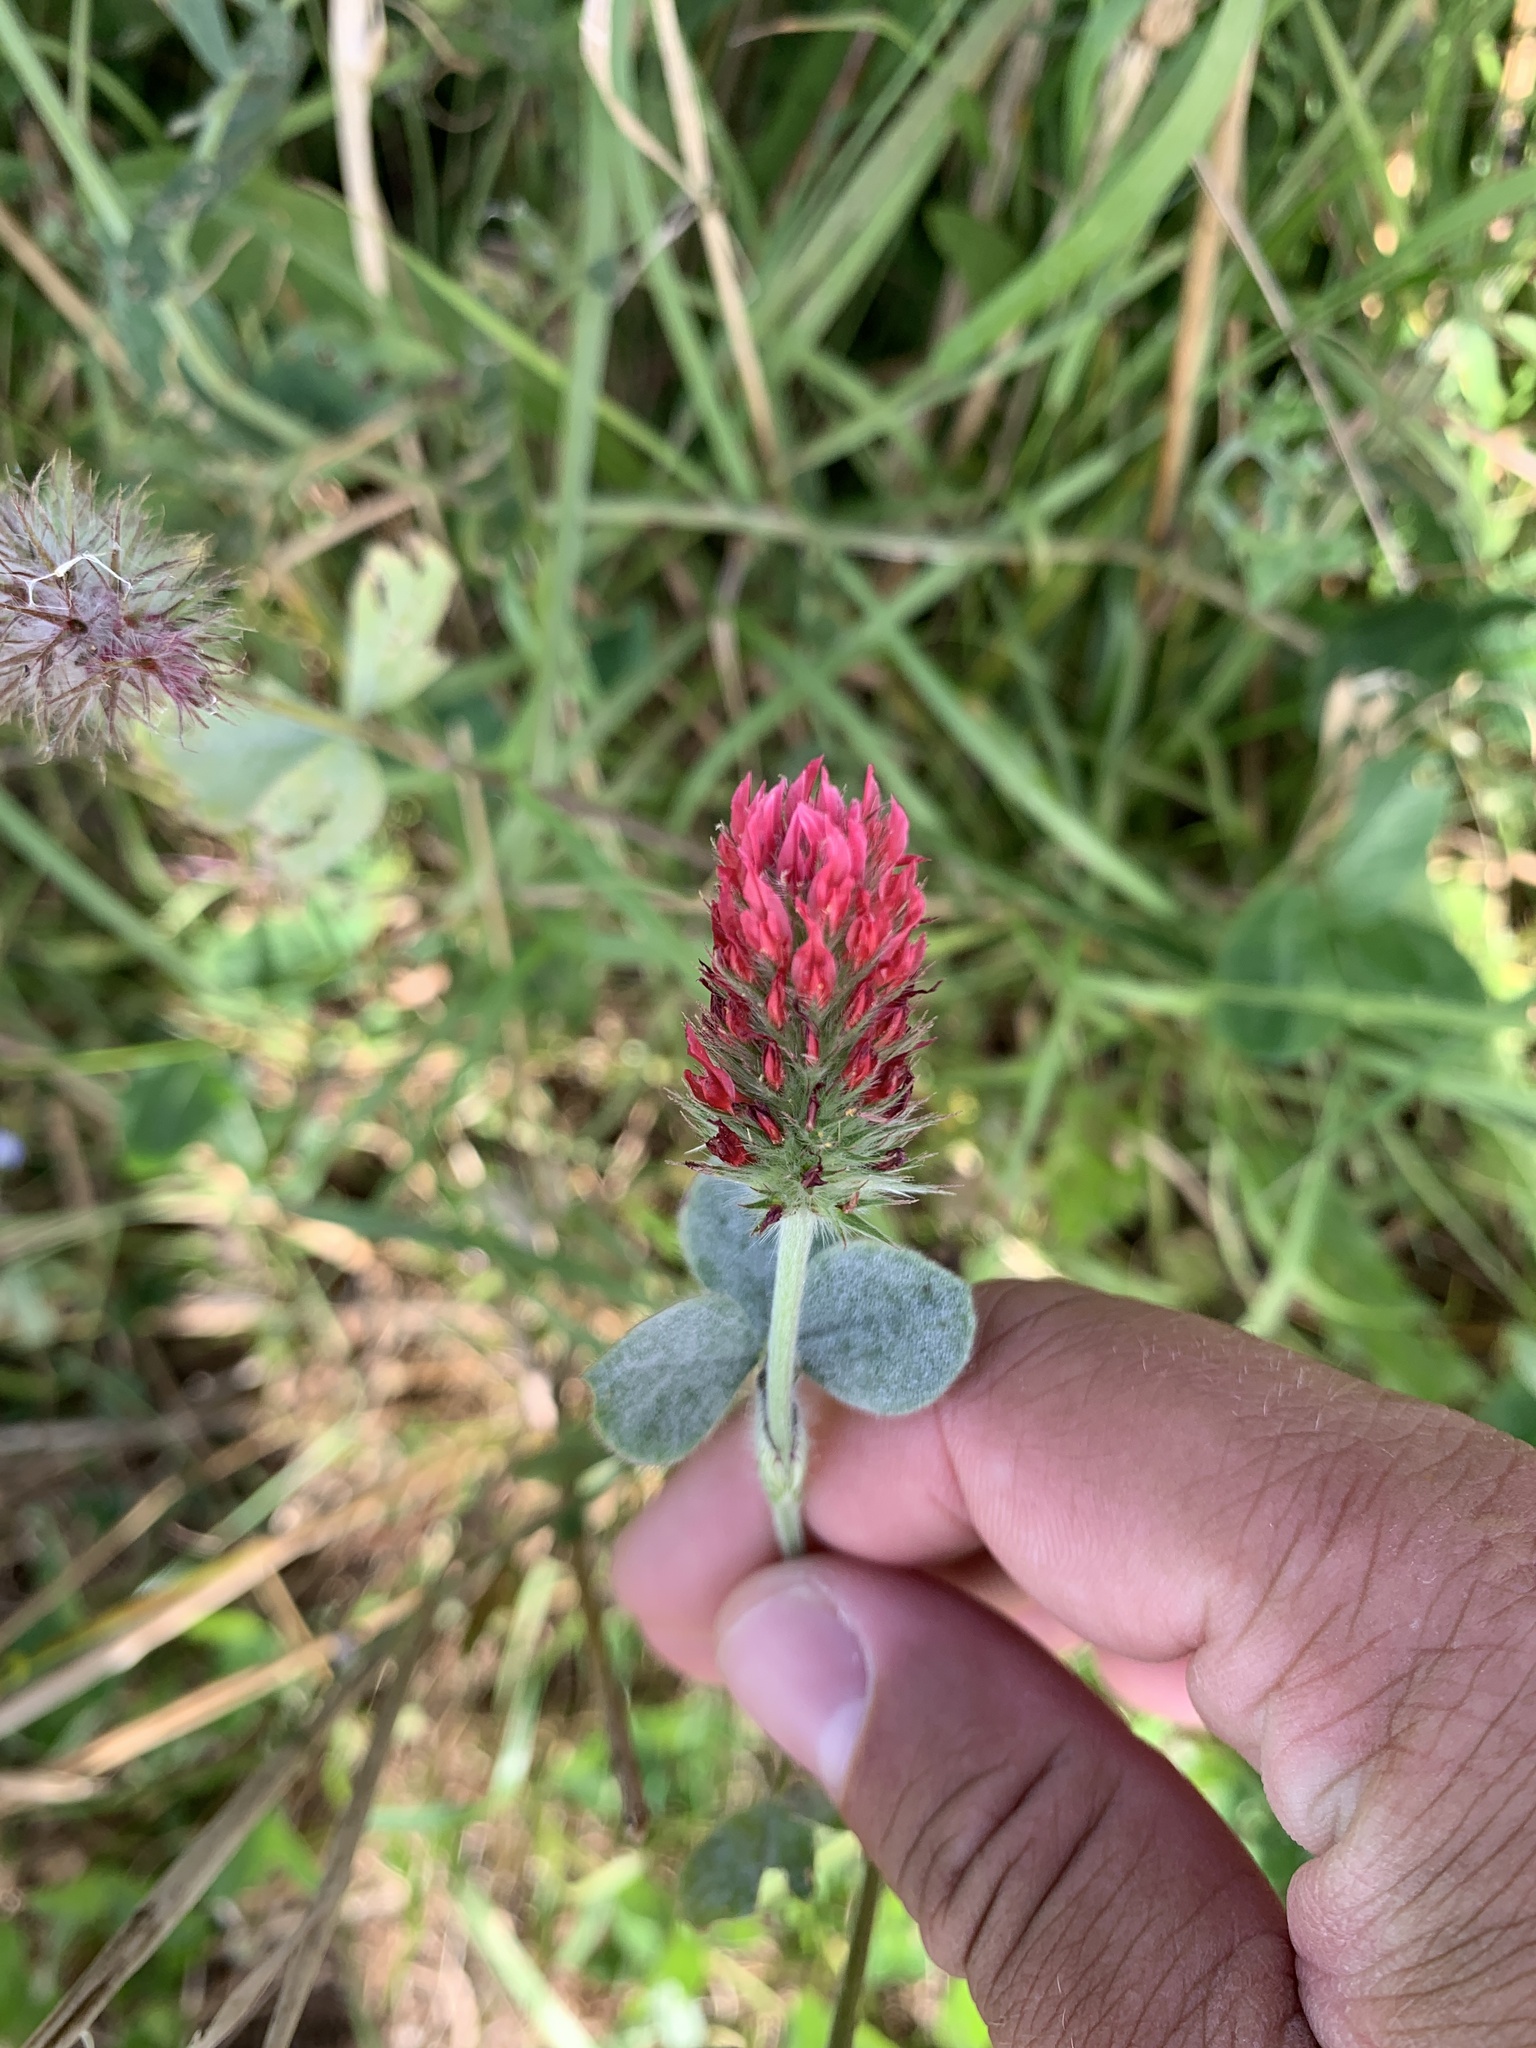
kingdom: Plantae
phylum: Tracheophyta
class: Magnoliopsida
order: Fabales
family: Fabaceae
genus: Trifolium
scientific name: Trifolium incarnatum
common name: Crimson clover
